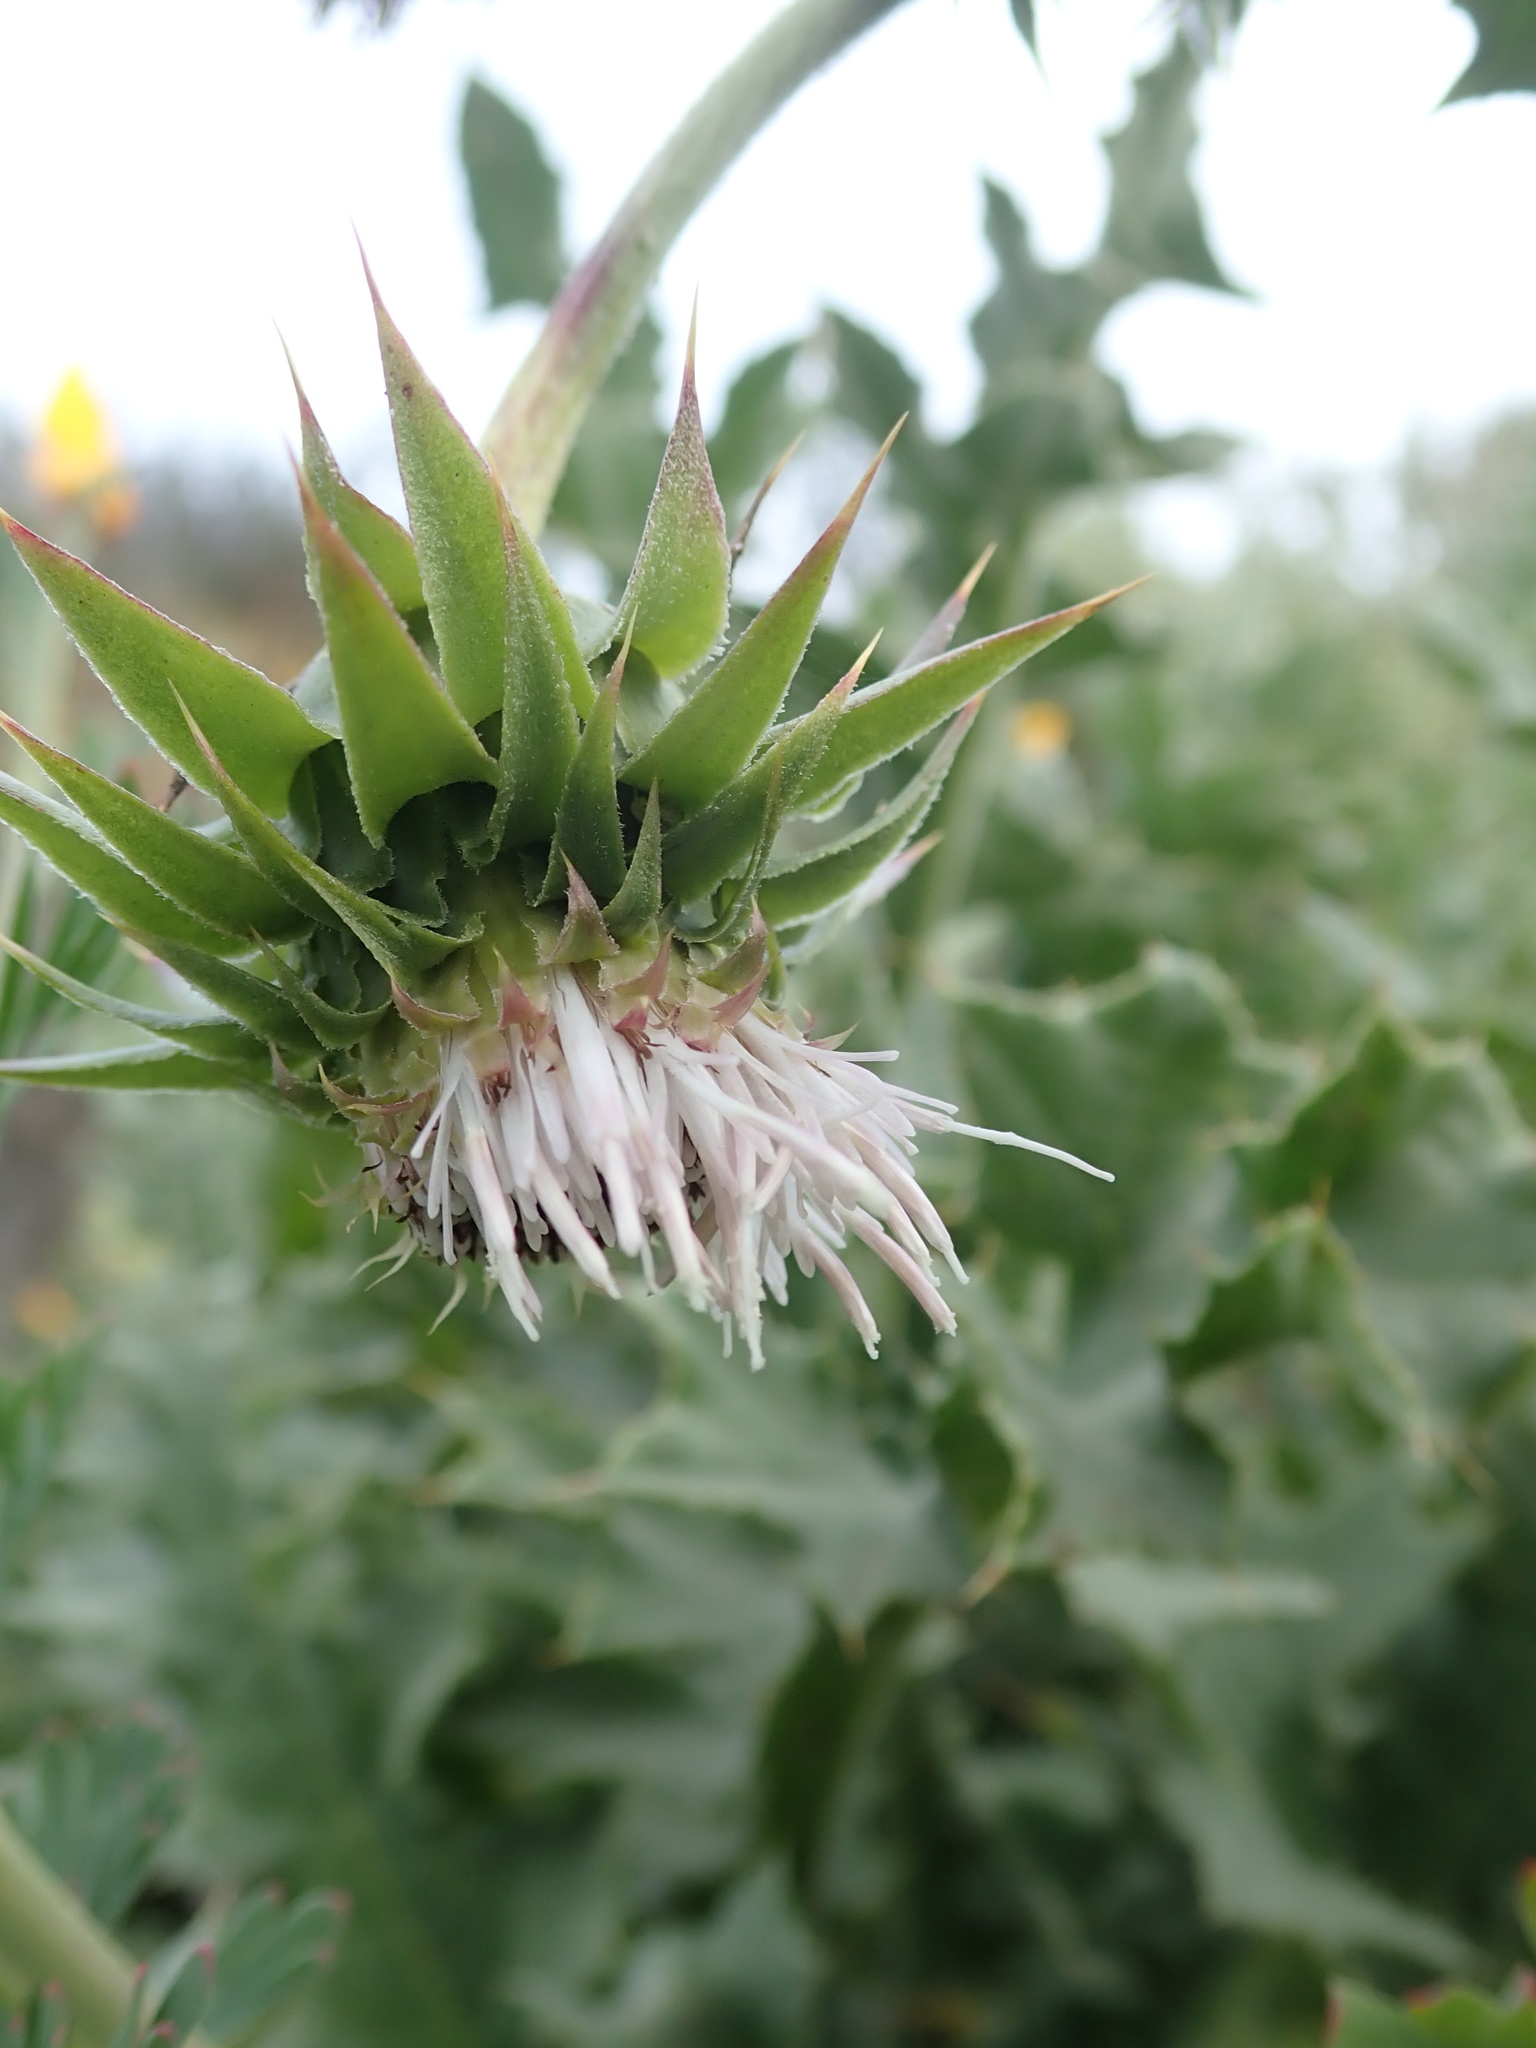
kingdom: Plantae
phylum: Tracheophyta
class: Magnoliopsida
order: Asterales
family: Asteraceae
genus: Cirsium
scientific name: Cirsium fontinale
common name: Fountain thistle
